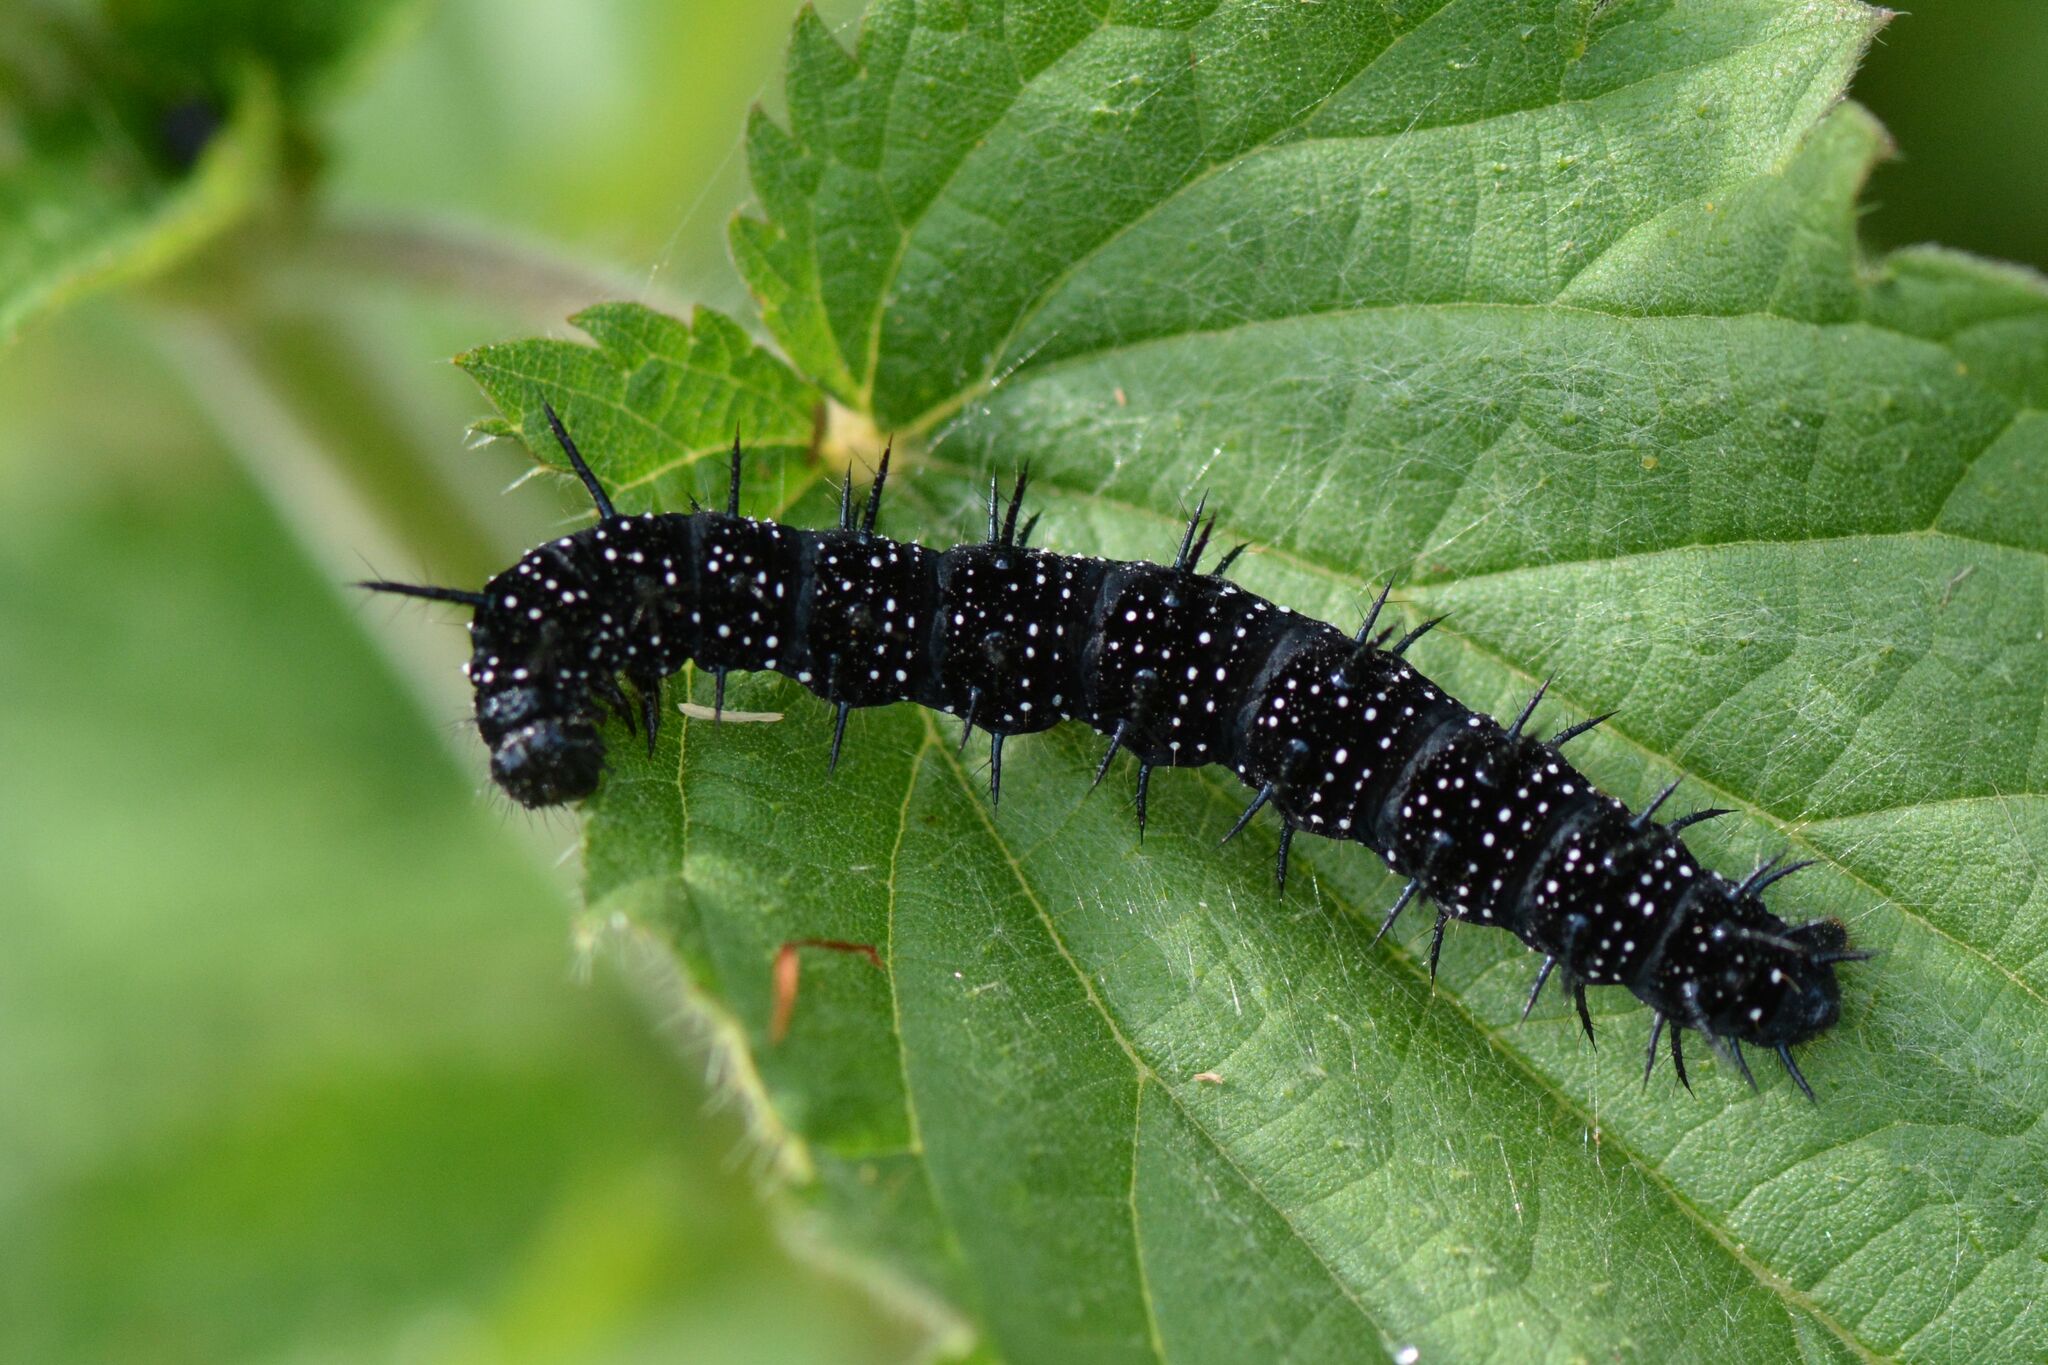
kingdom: Animalia
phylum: Arthropoda
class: Insecta
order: Lepidoptera
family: Nymphalidae
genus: Aglais
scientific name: Aglais io
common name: Peacock
